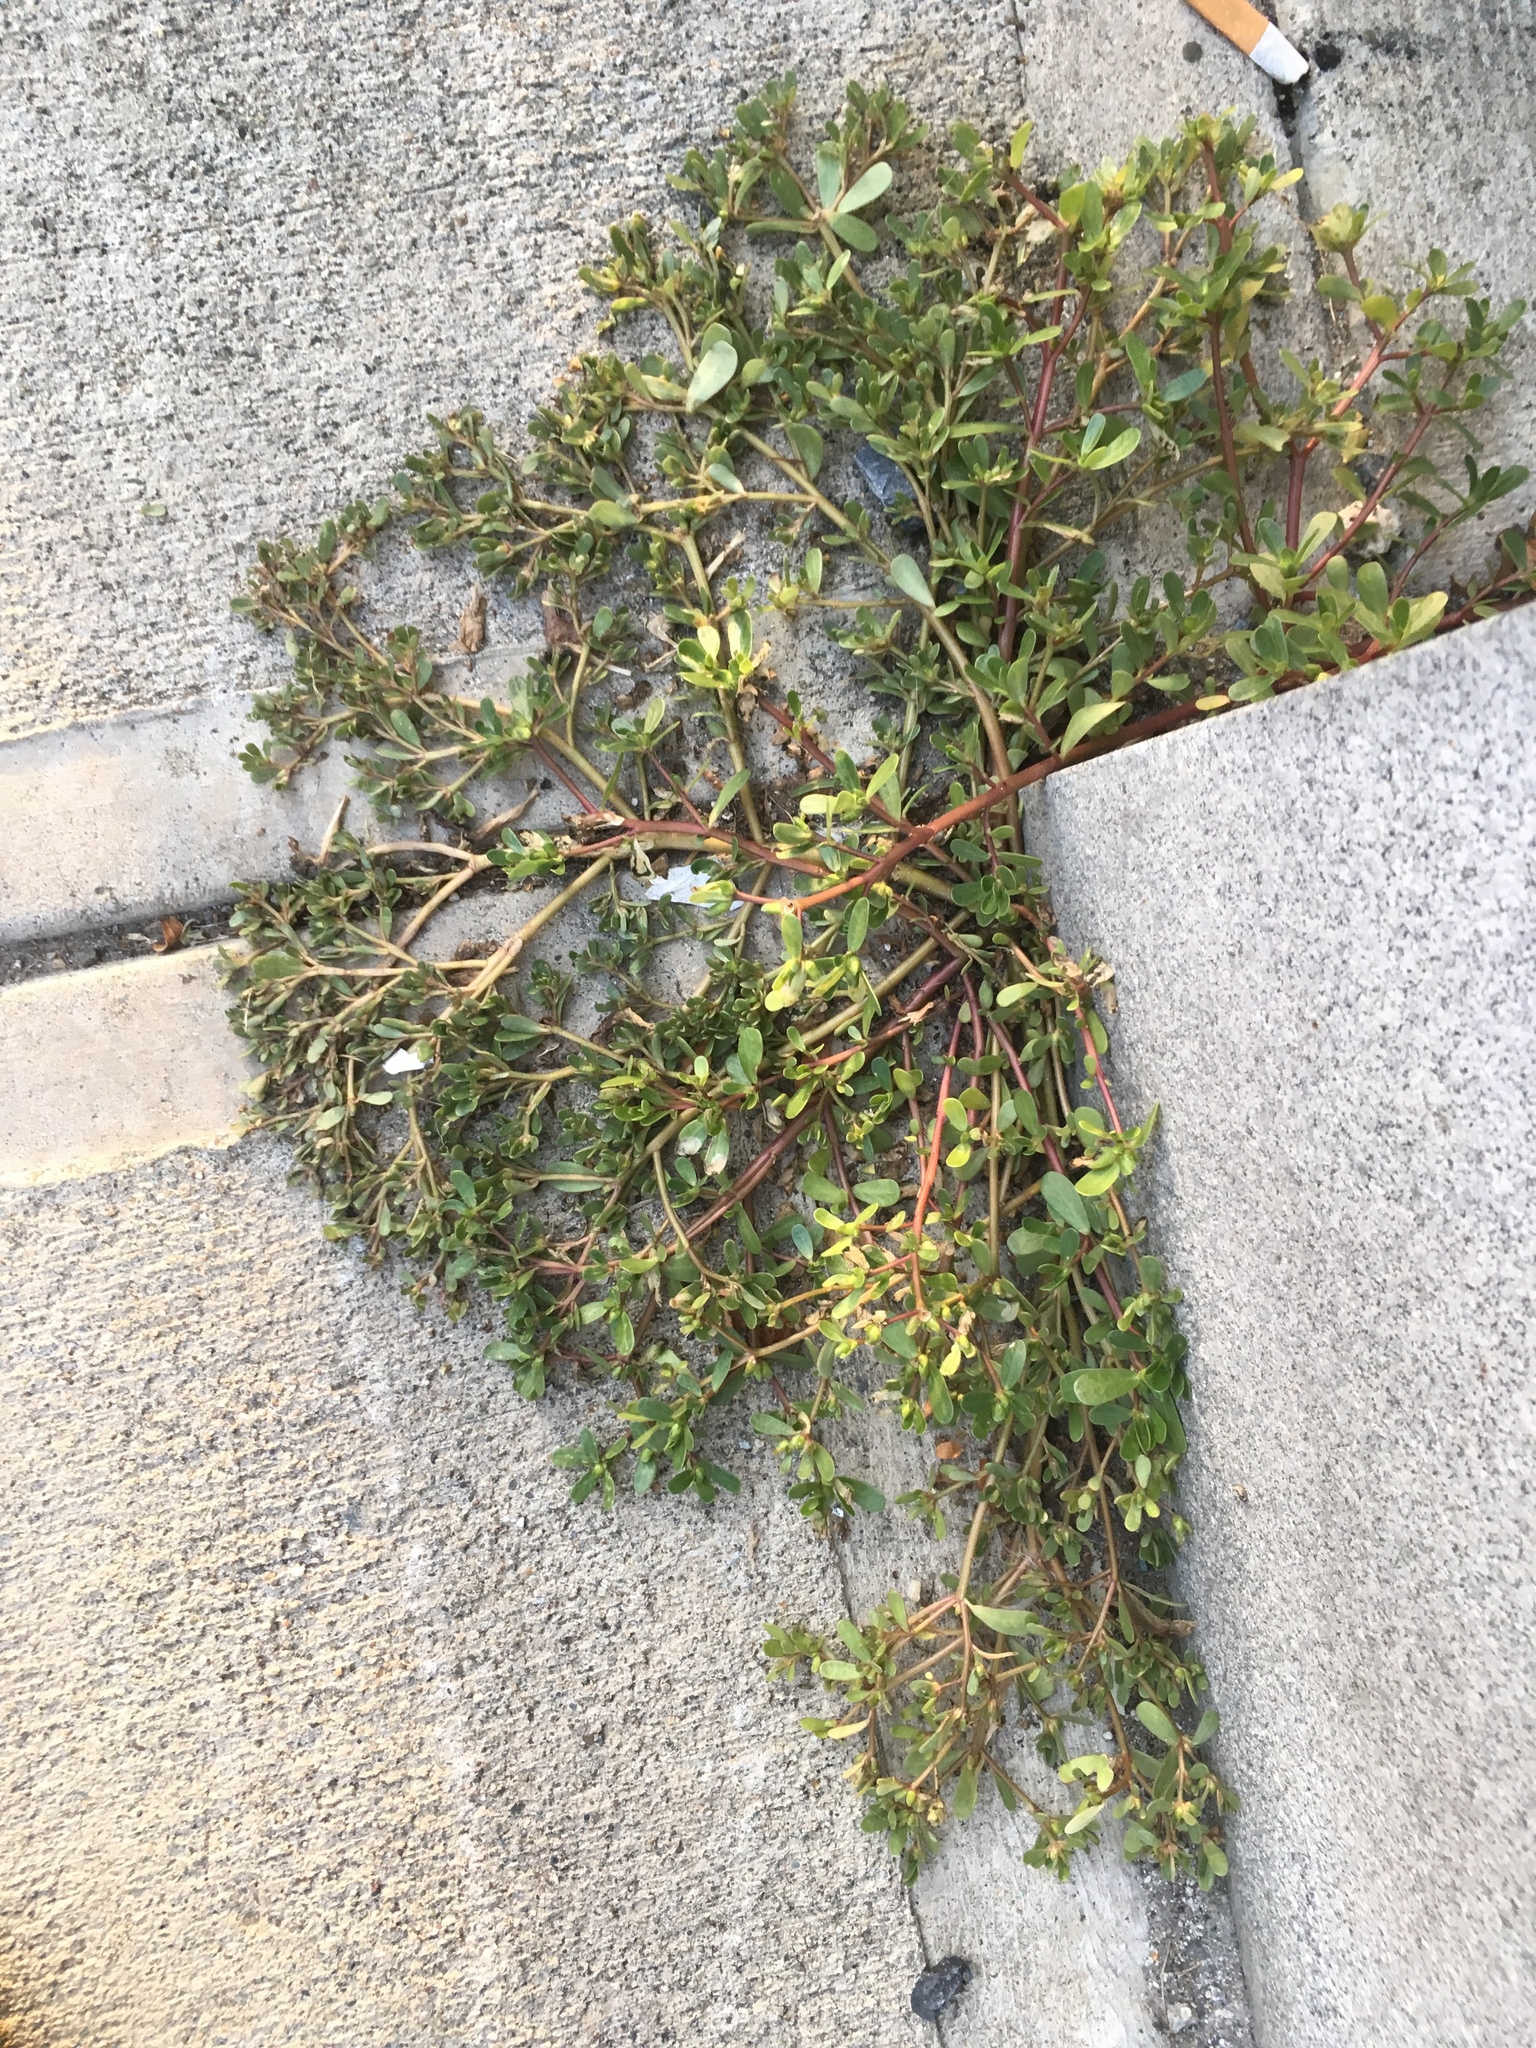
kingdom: Plantae
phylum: Tracheophyta
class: Magnoliopsida
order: Caryophyllales
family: Portulacaceae
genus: Portulaca
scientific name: Portulaca oleracea
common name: Common purslane
